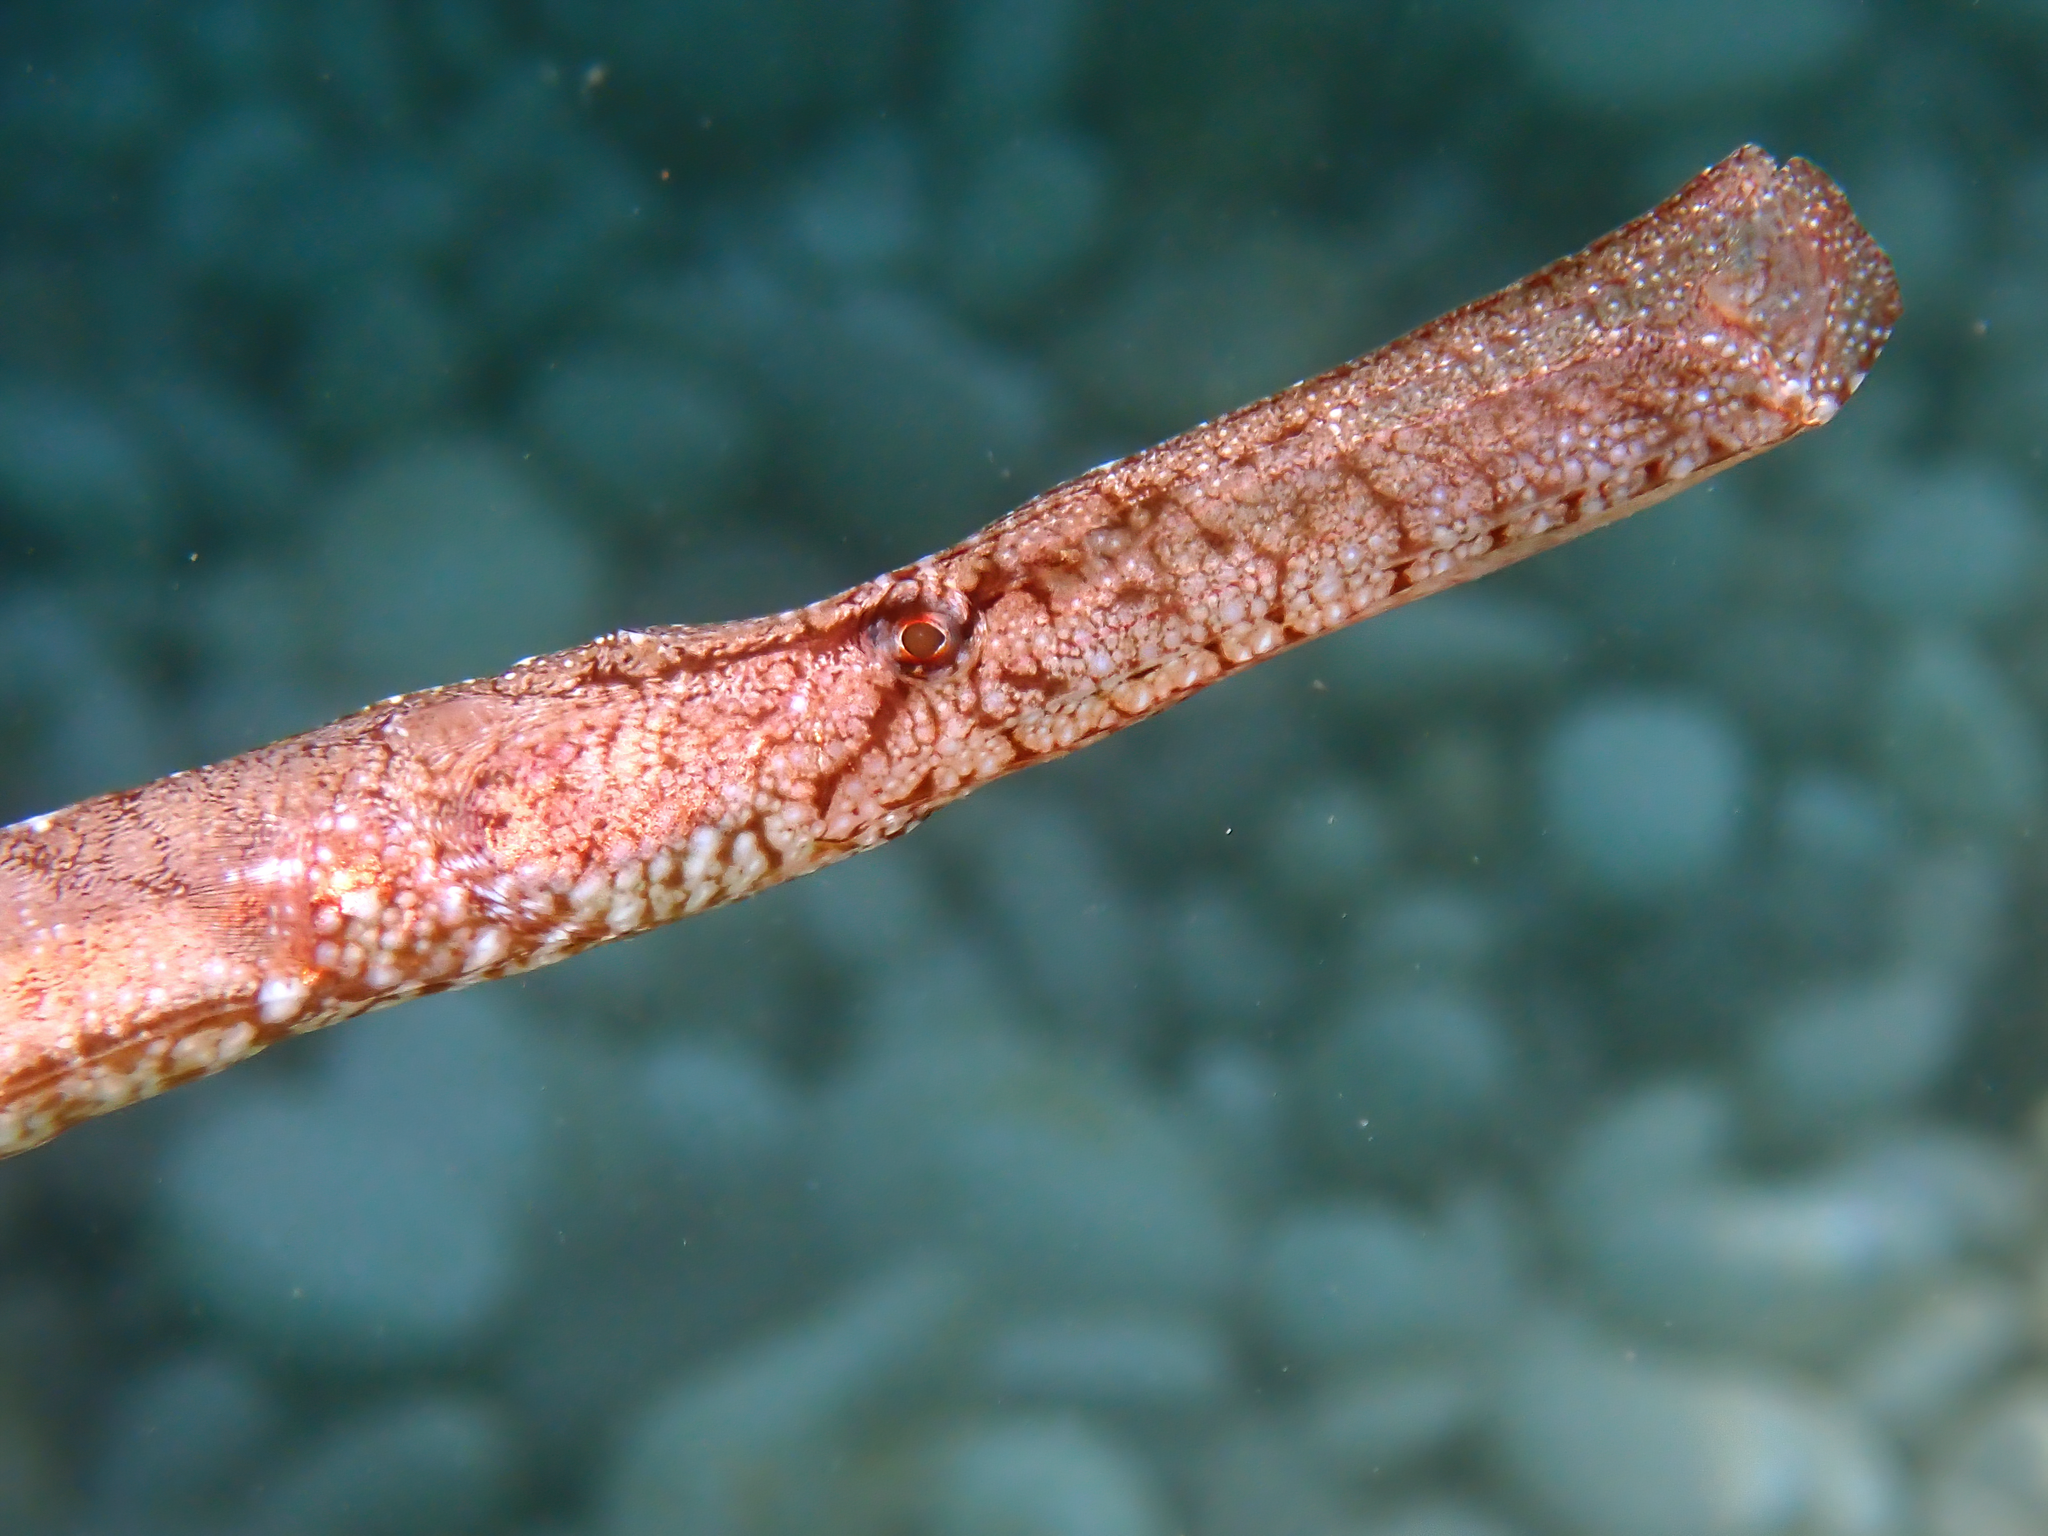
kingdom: Animalia
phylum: Chordata
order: Syngnathiformes
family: Syngnathidae
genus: Syngnathus
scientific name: Syngnathus typhle
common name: Deep-snouted pipefish
